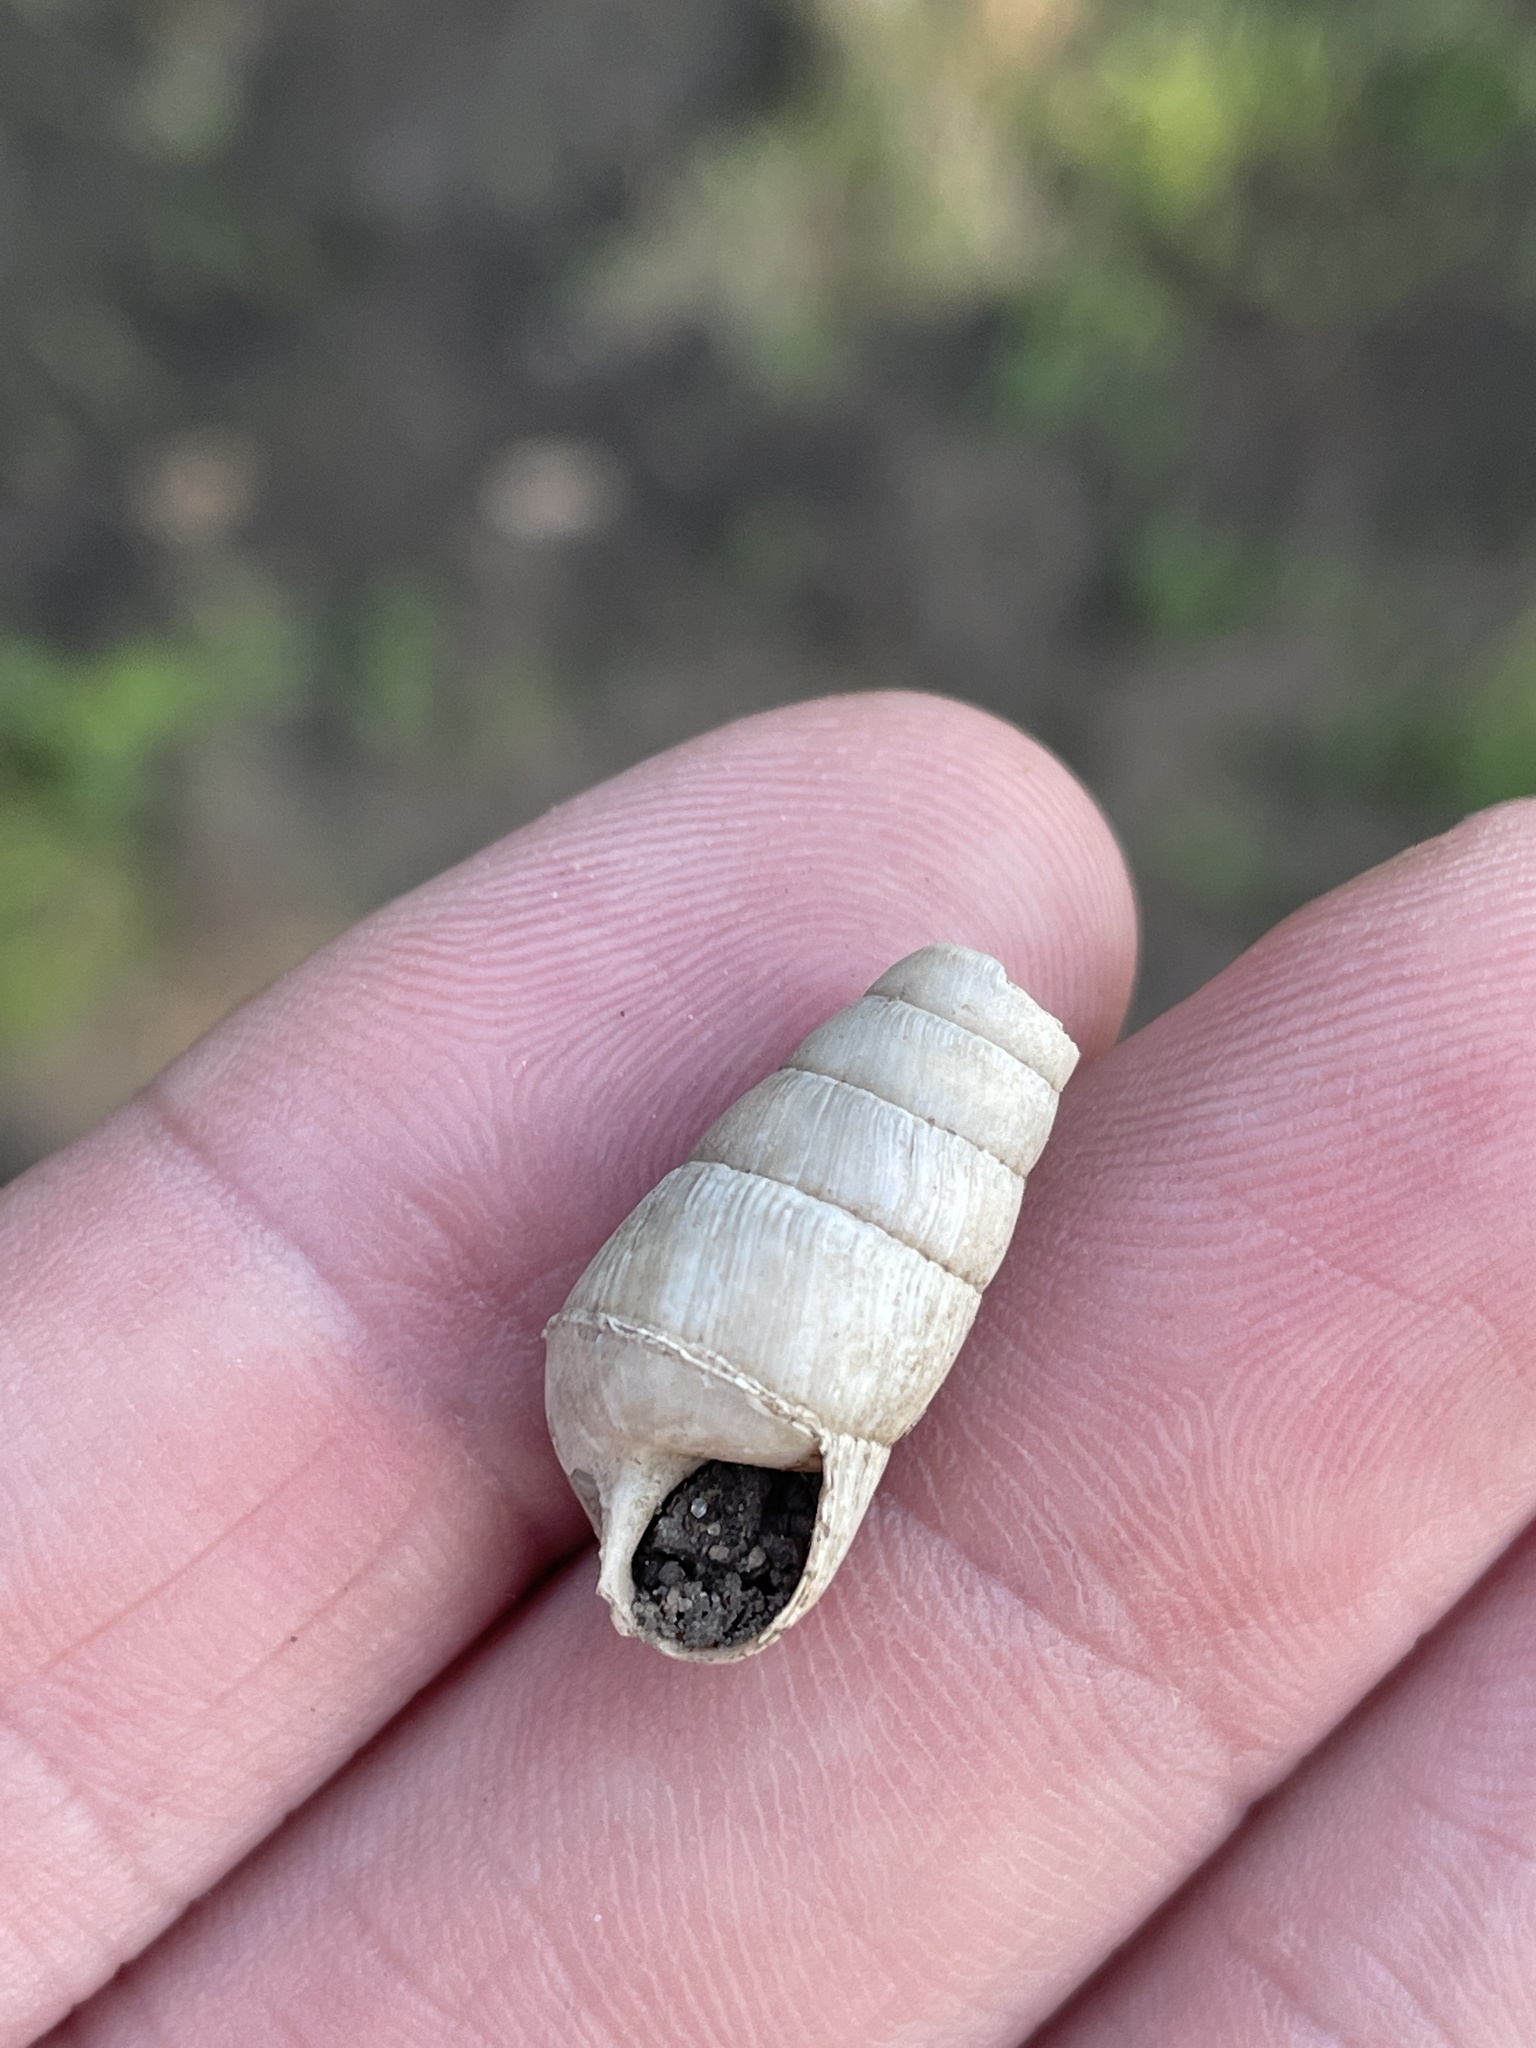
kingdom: Animalia
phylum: Mollusca
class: Gastropoda
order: Stylommatophora
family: Achatinidae
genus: Rumina
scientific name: Rumina decollata
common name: Decollate snail
